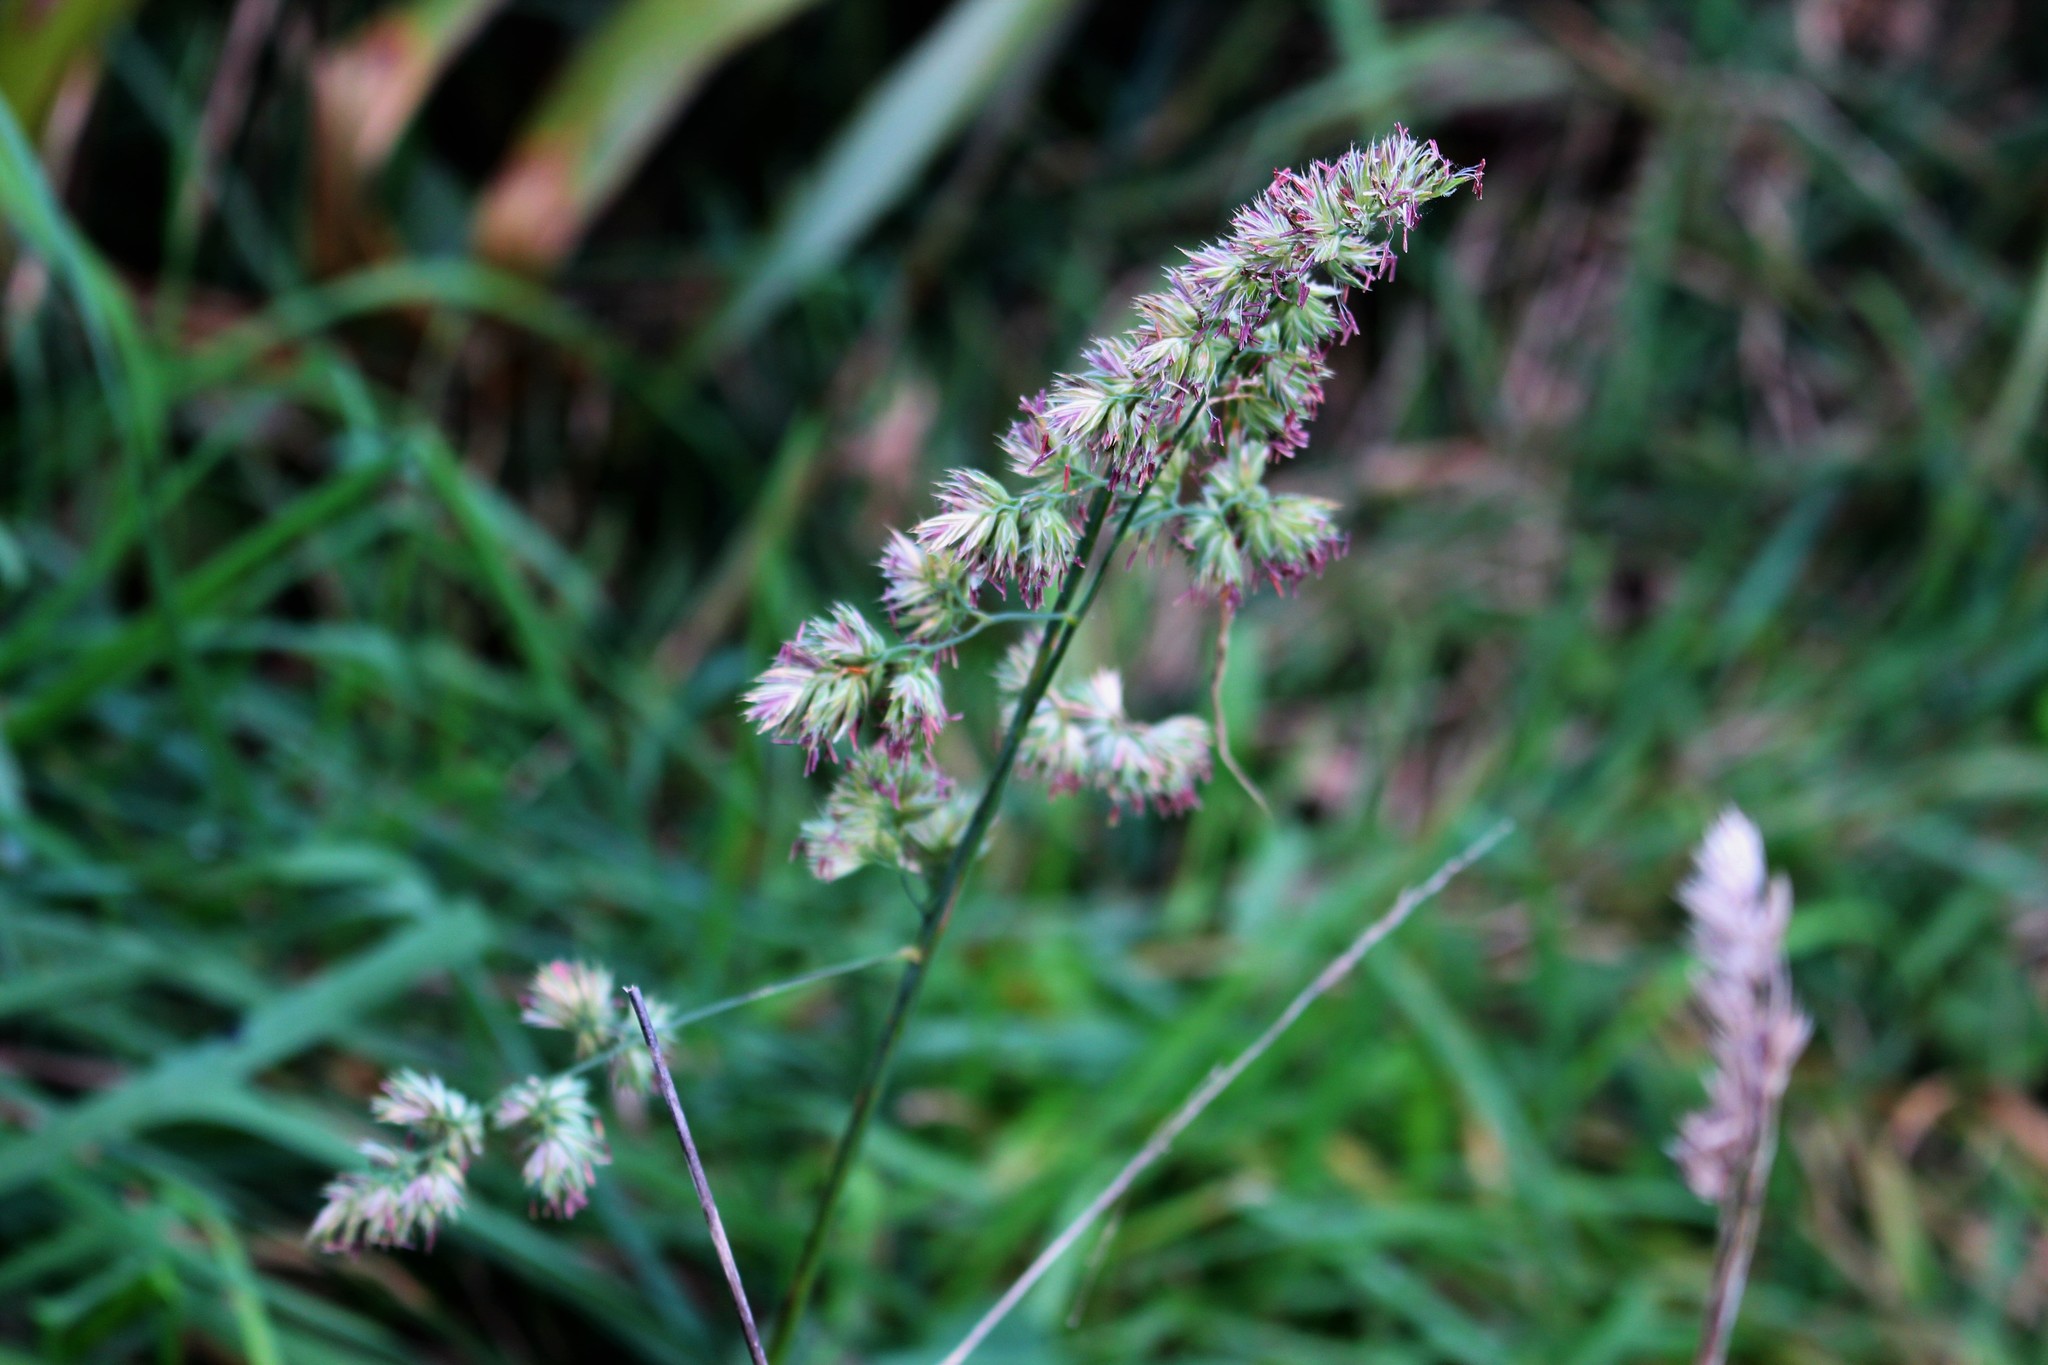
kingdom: Plantae
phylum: Tracheophyta
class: Liliopsida
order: Poales
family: Poaceae
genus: Dactylis
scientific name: Dactylis glomerata
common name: Orchardgrass
